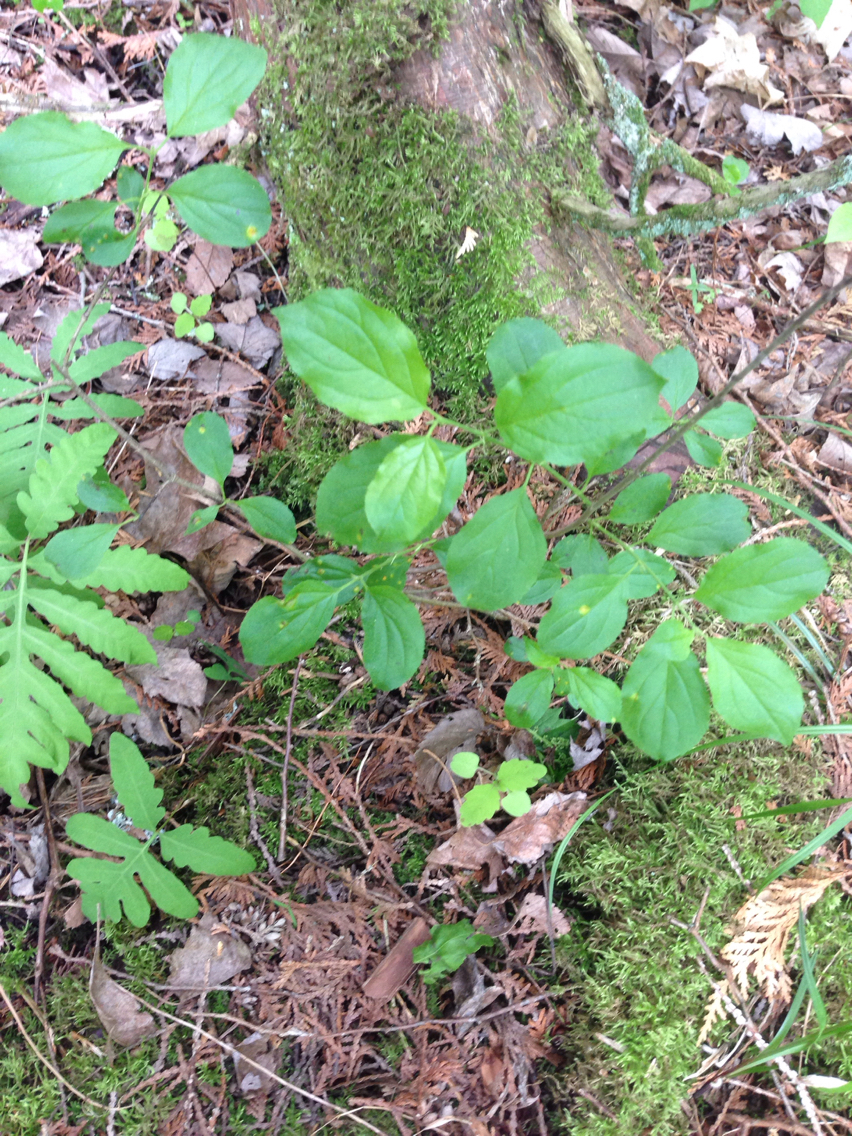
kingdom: Plantae
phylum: Tracheophyta
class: Magnoliopsida
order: Rosales
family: Rhamnaceae
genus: Rhamnus
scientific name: Rhamnus cathartica
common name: Common buckthorn
